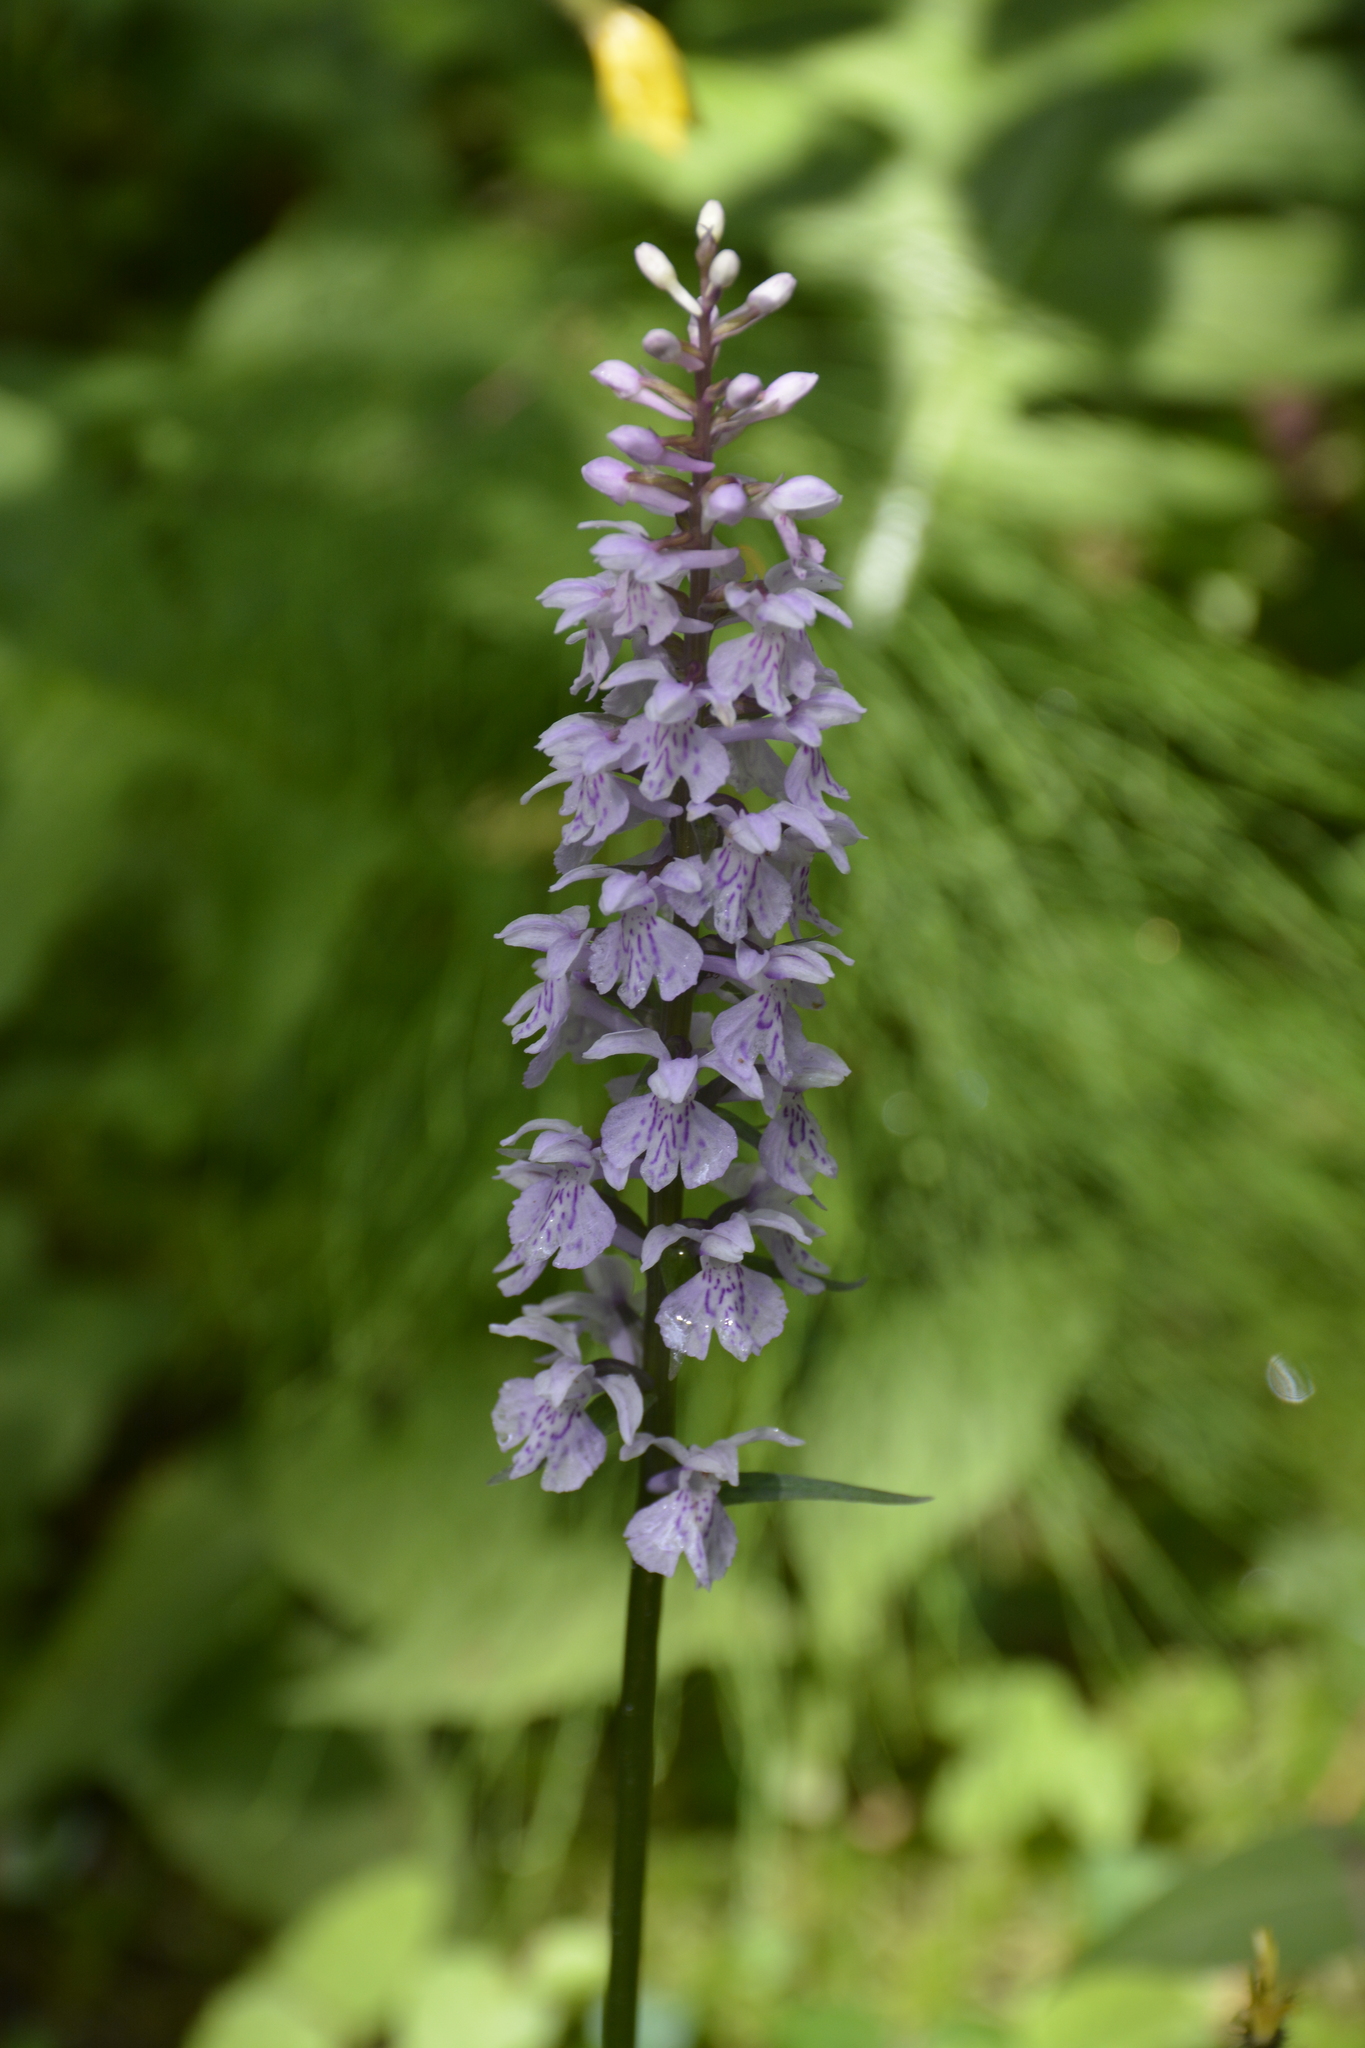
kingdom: Plantae
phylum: Tracheophyta
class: Liliopsida
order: Asparagales
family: Orchidaceae
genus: Dactylorhiza
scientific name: Dactylorhiza maculata
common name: Heath spotted-orchid
